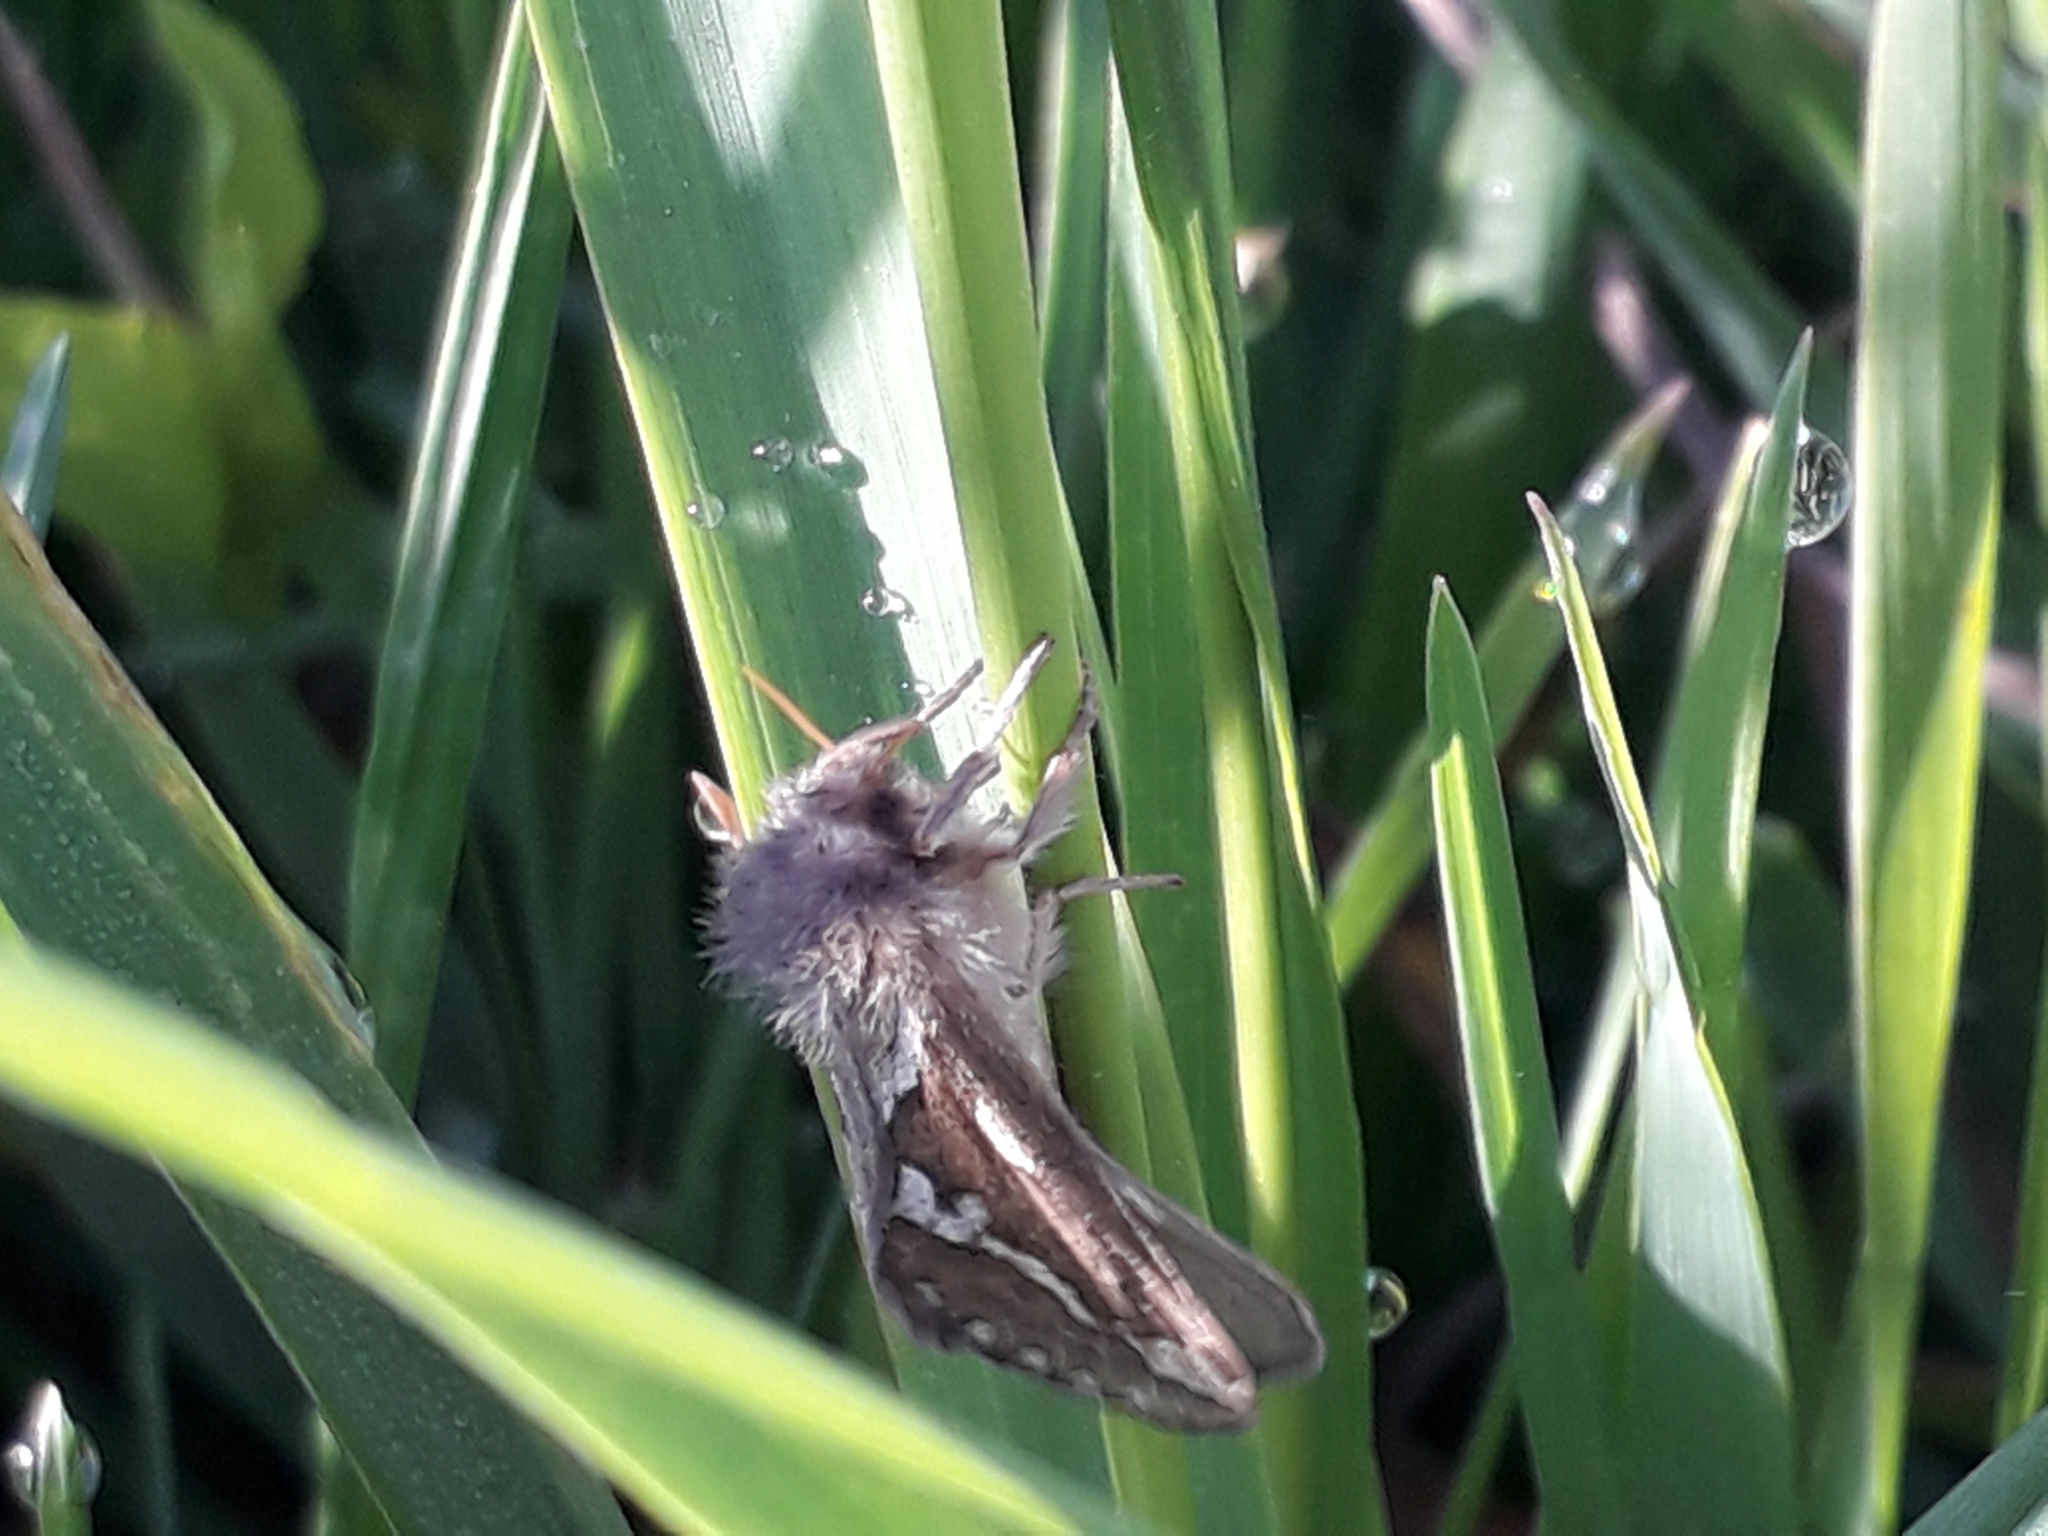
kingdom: Animalia
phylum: Arthropoda
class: Insecta
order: Lepidoptera
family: Hepialidae
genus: Korscheltellus
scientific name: Korscheltellus lupulina
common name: Common swift
